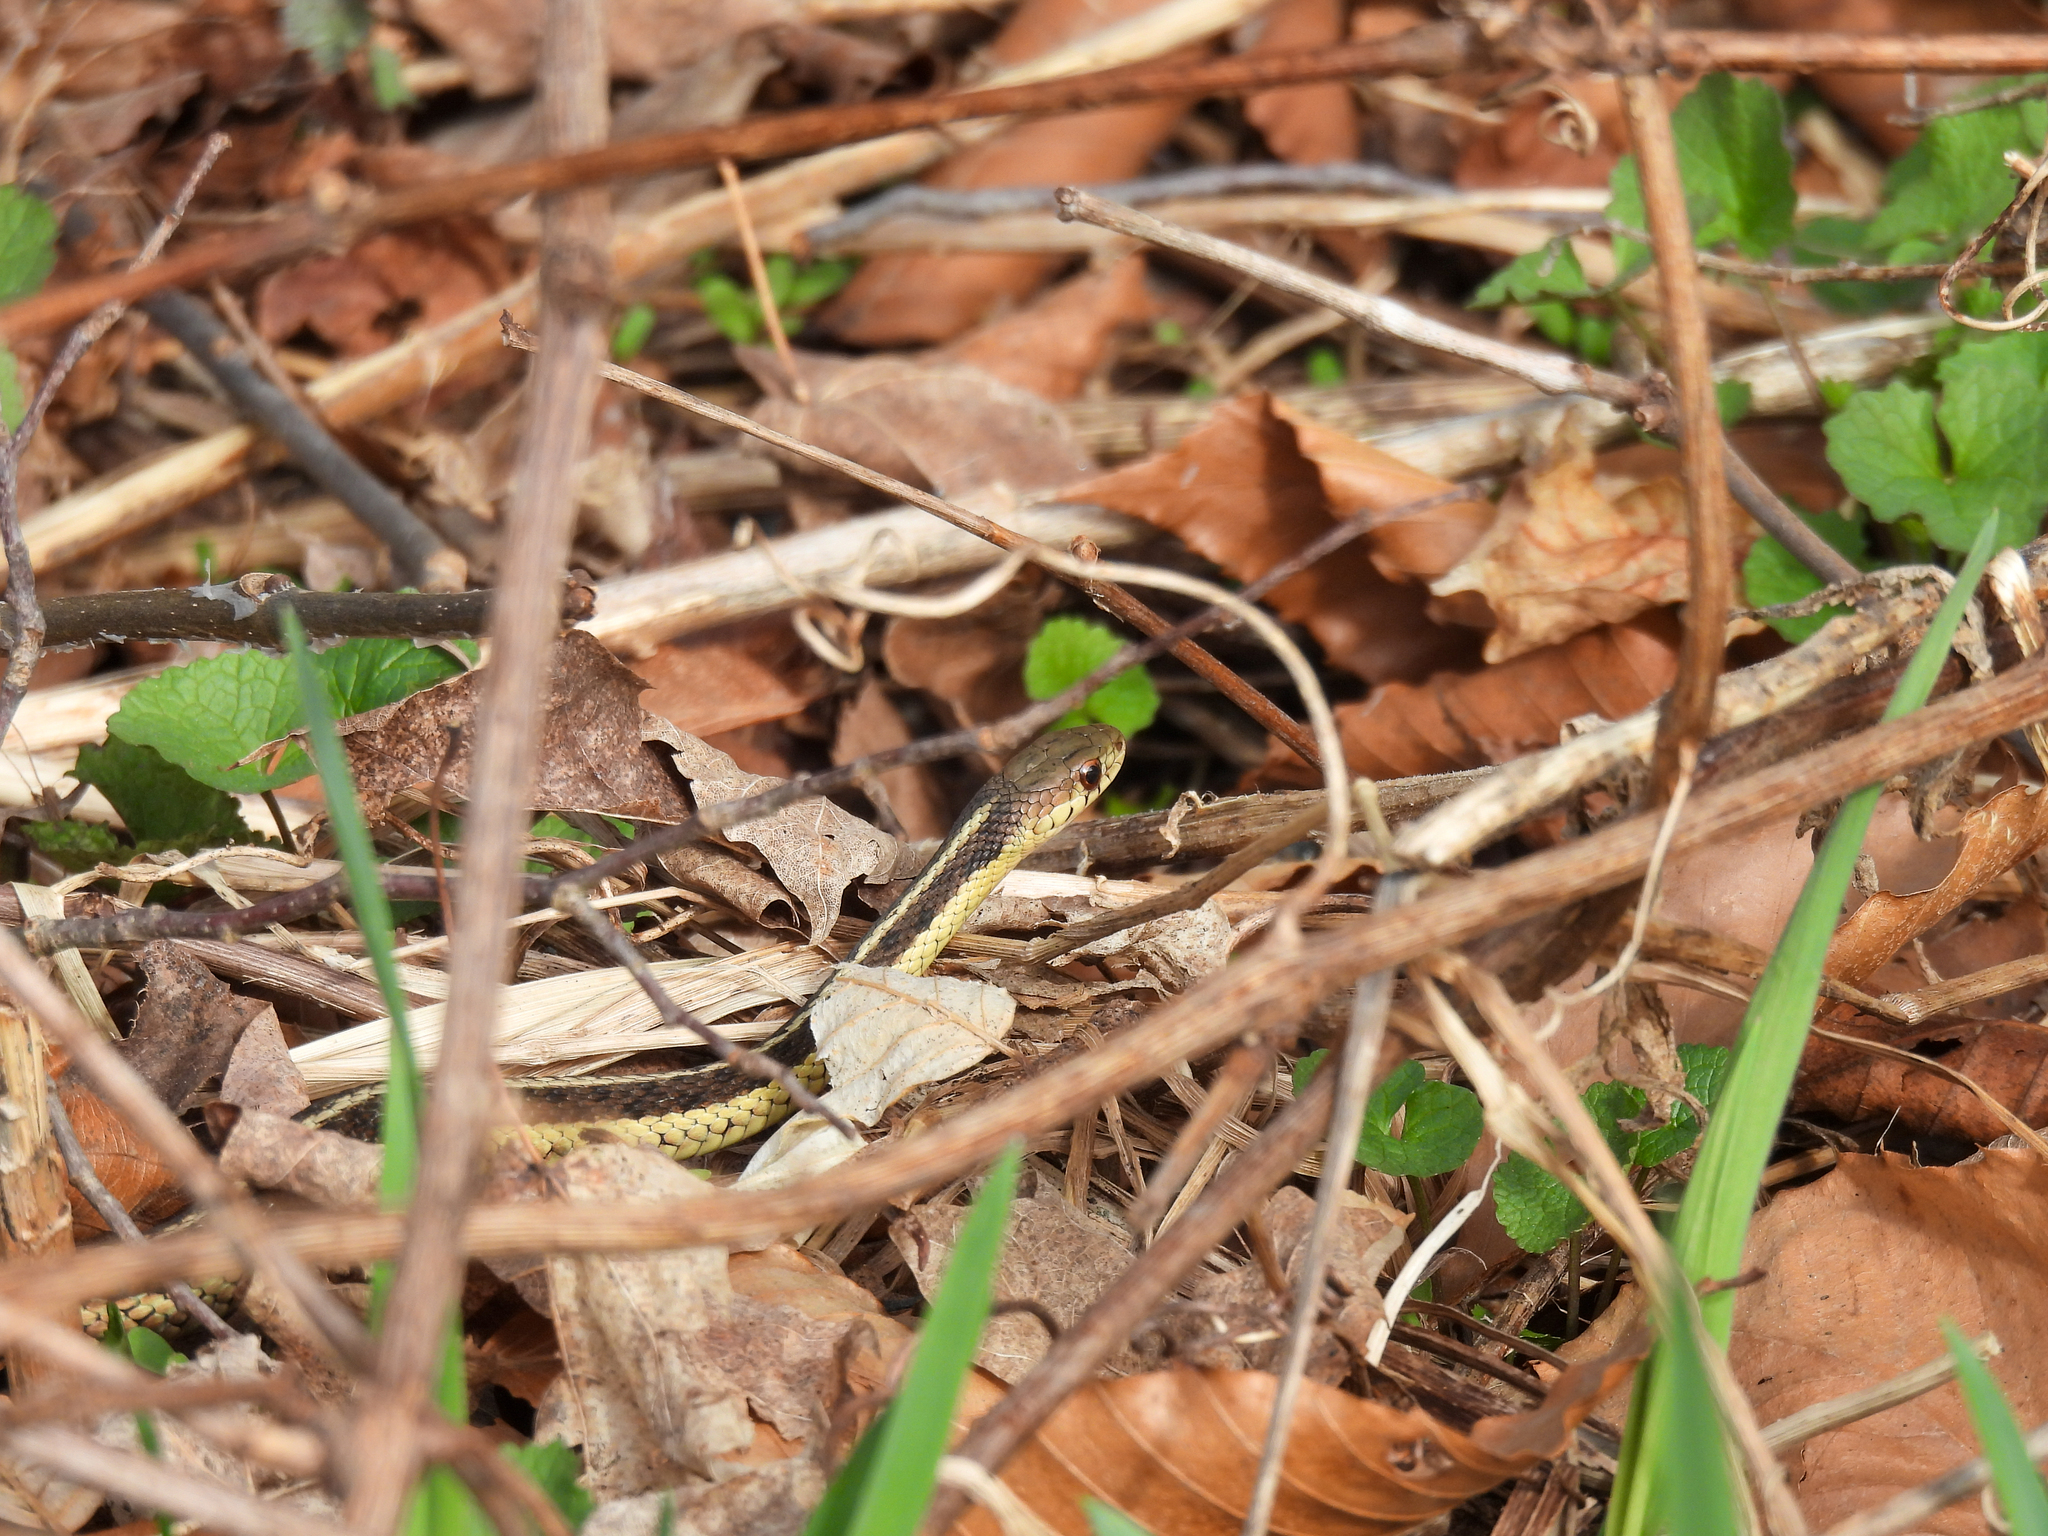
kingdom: Animalia
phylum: Chordata
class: Squamata
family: Colubridae
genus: Thamnophis
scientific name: Thamnophis sirtalis
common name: Common garter snake
